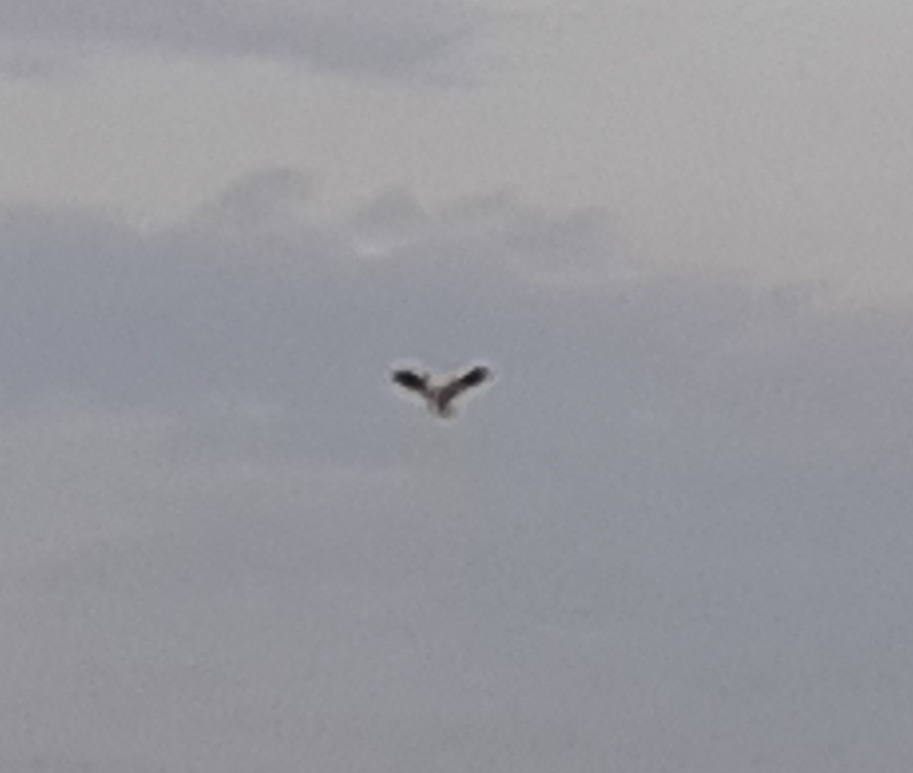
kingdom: Animalia
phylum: Chordata
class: Aves
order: Accipitriformes
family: Accipitridae
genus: Elanus
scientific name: Elanus caeruleus
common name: Black-winged kite
